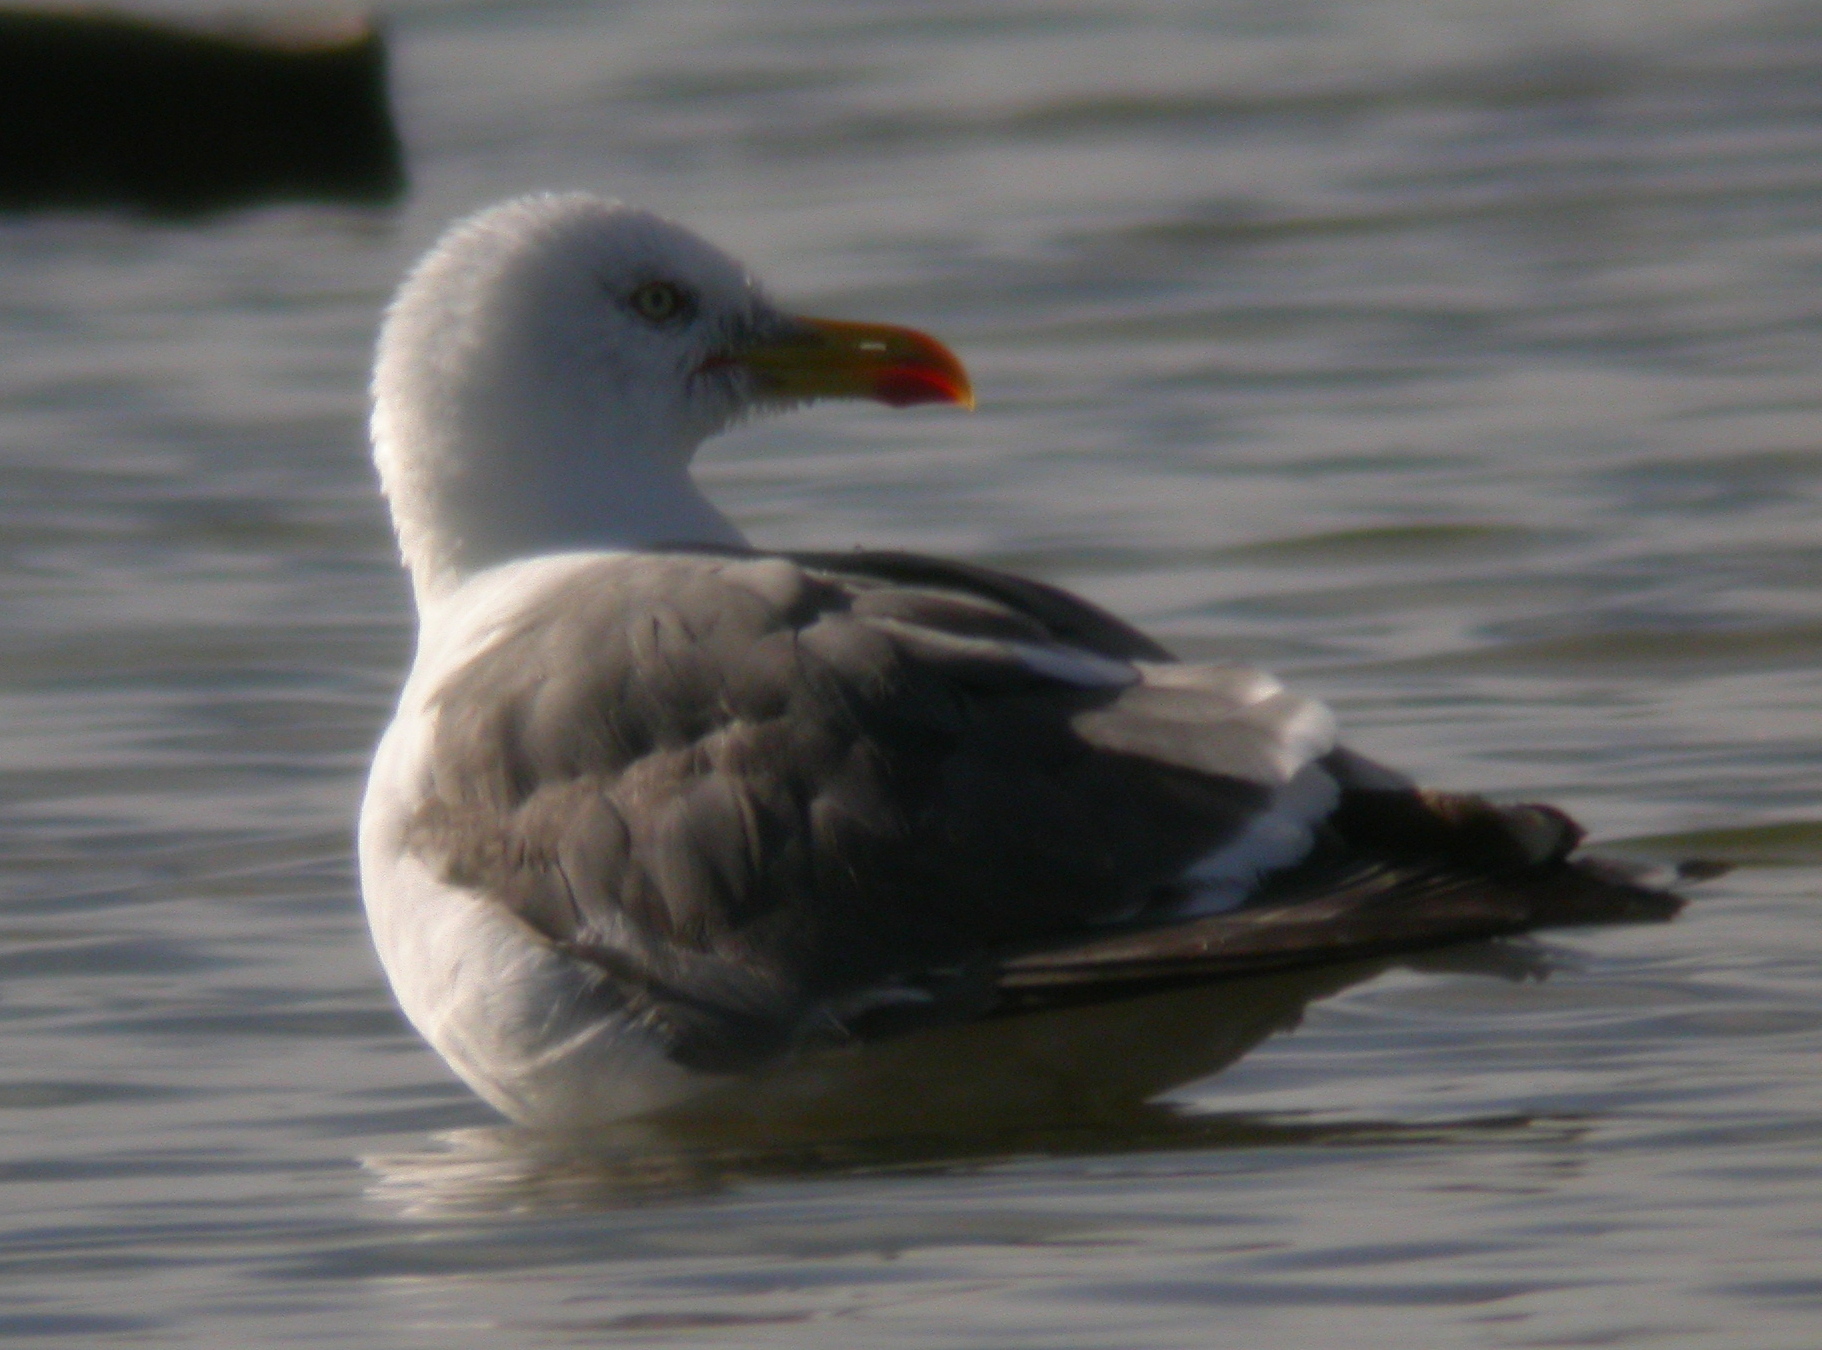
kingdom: Animalia
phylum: Chordata
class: Aves
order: Charadriiformes
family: Laridae
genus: Larus
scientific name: Larus fuscus
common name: Lesser black-backed gull
